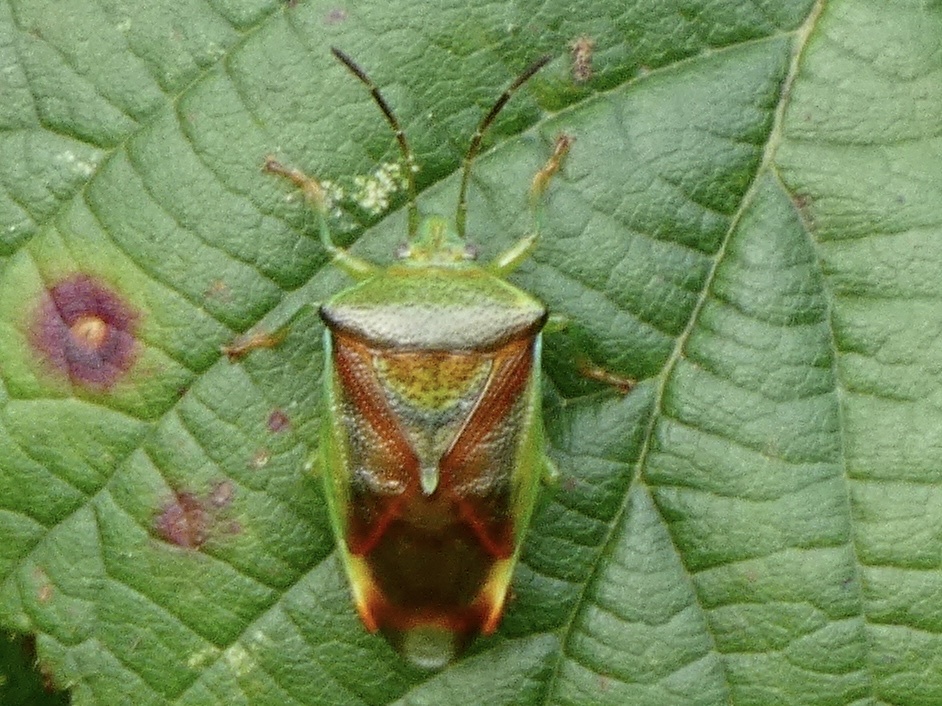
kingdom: Animalia
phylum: Arthropoda
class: Insecta
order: Hemiptera
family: Acanthosomatidae
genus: Elasmostethus
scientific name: Elasmostethus interstinctus
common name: Birch shieldbug
